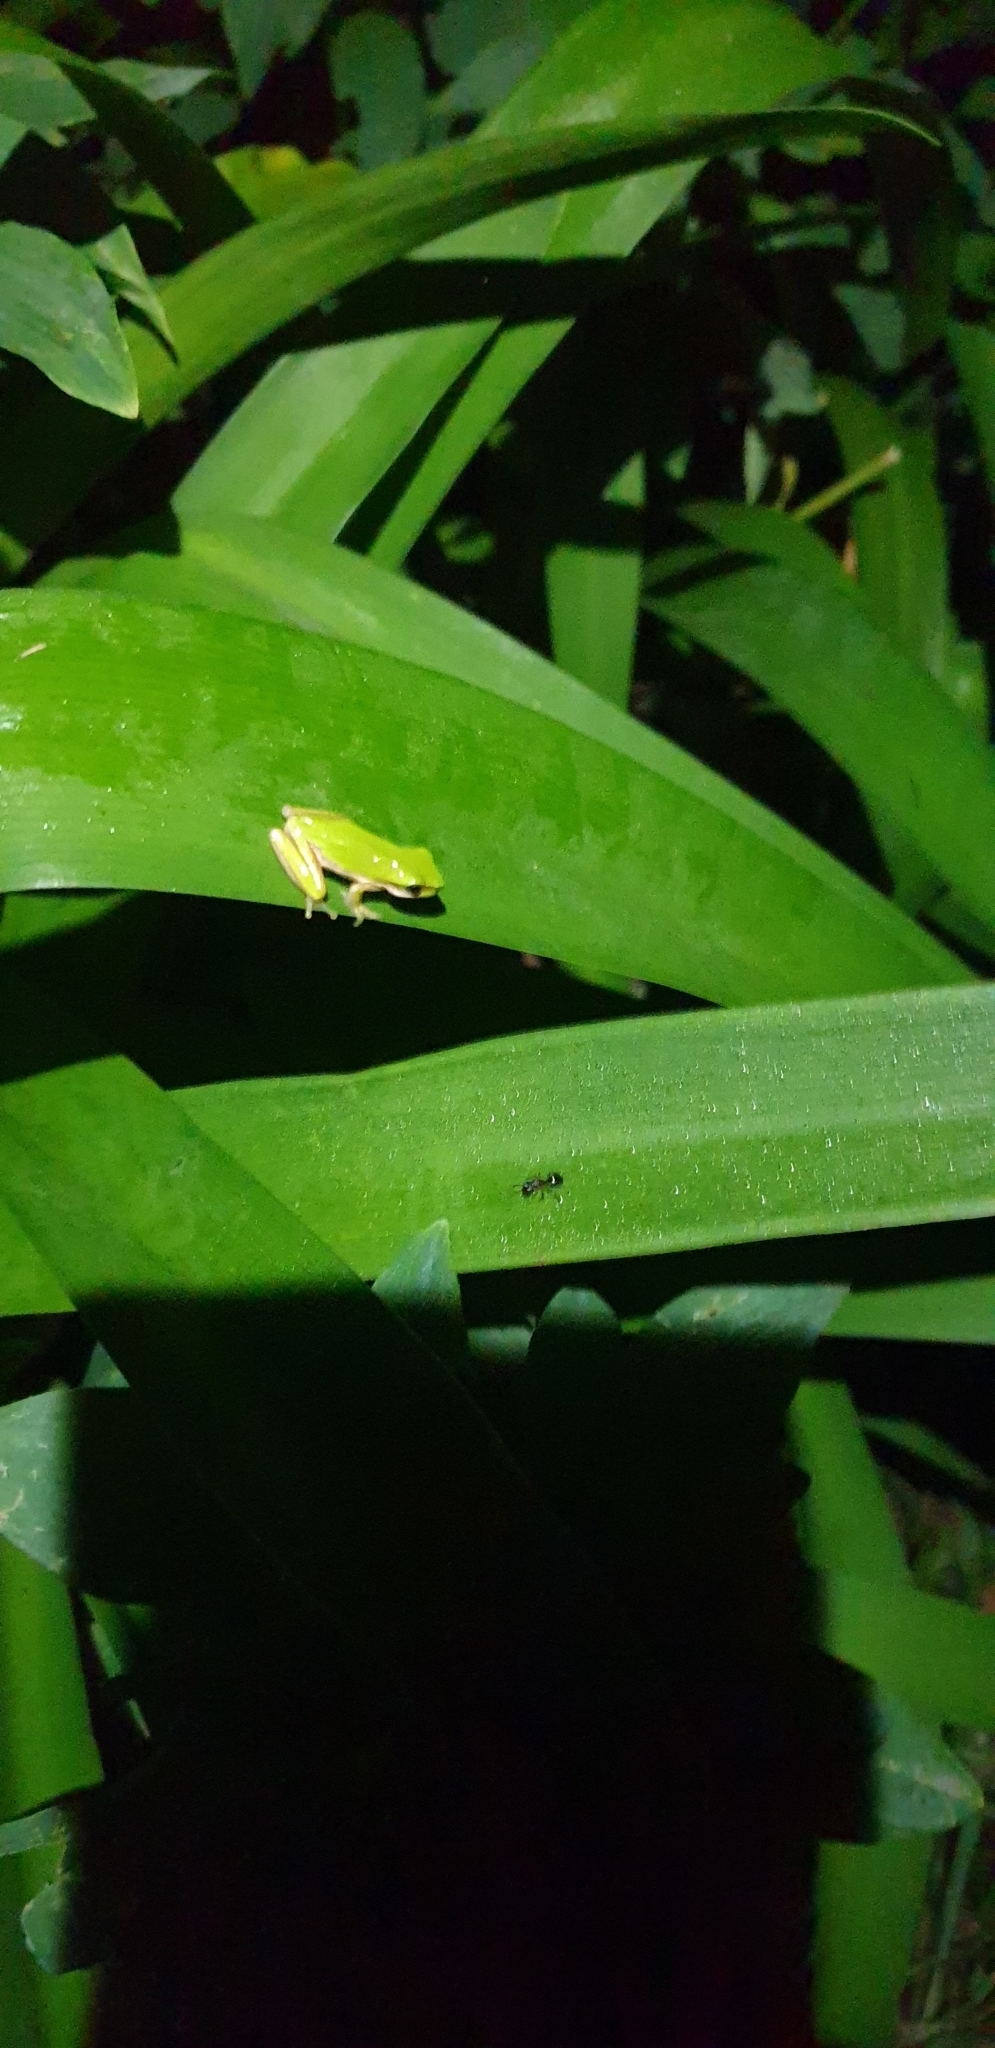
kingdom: Animalia
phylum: Chordata
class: Amphibia
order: Anura
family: Pelodryadidae
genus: Litoria
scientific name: Litoria fallax
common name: Eastern dwarf treefrog
